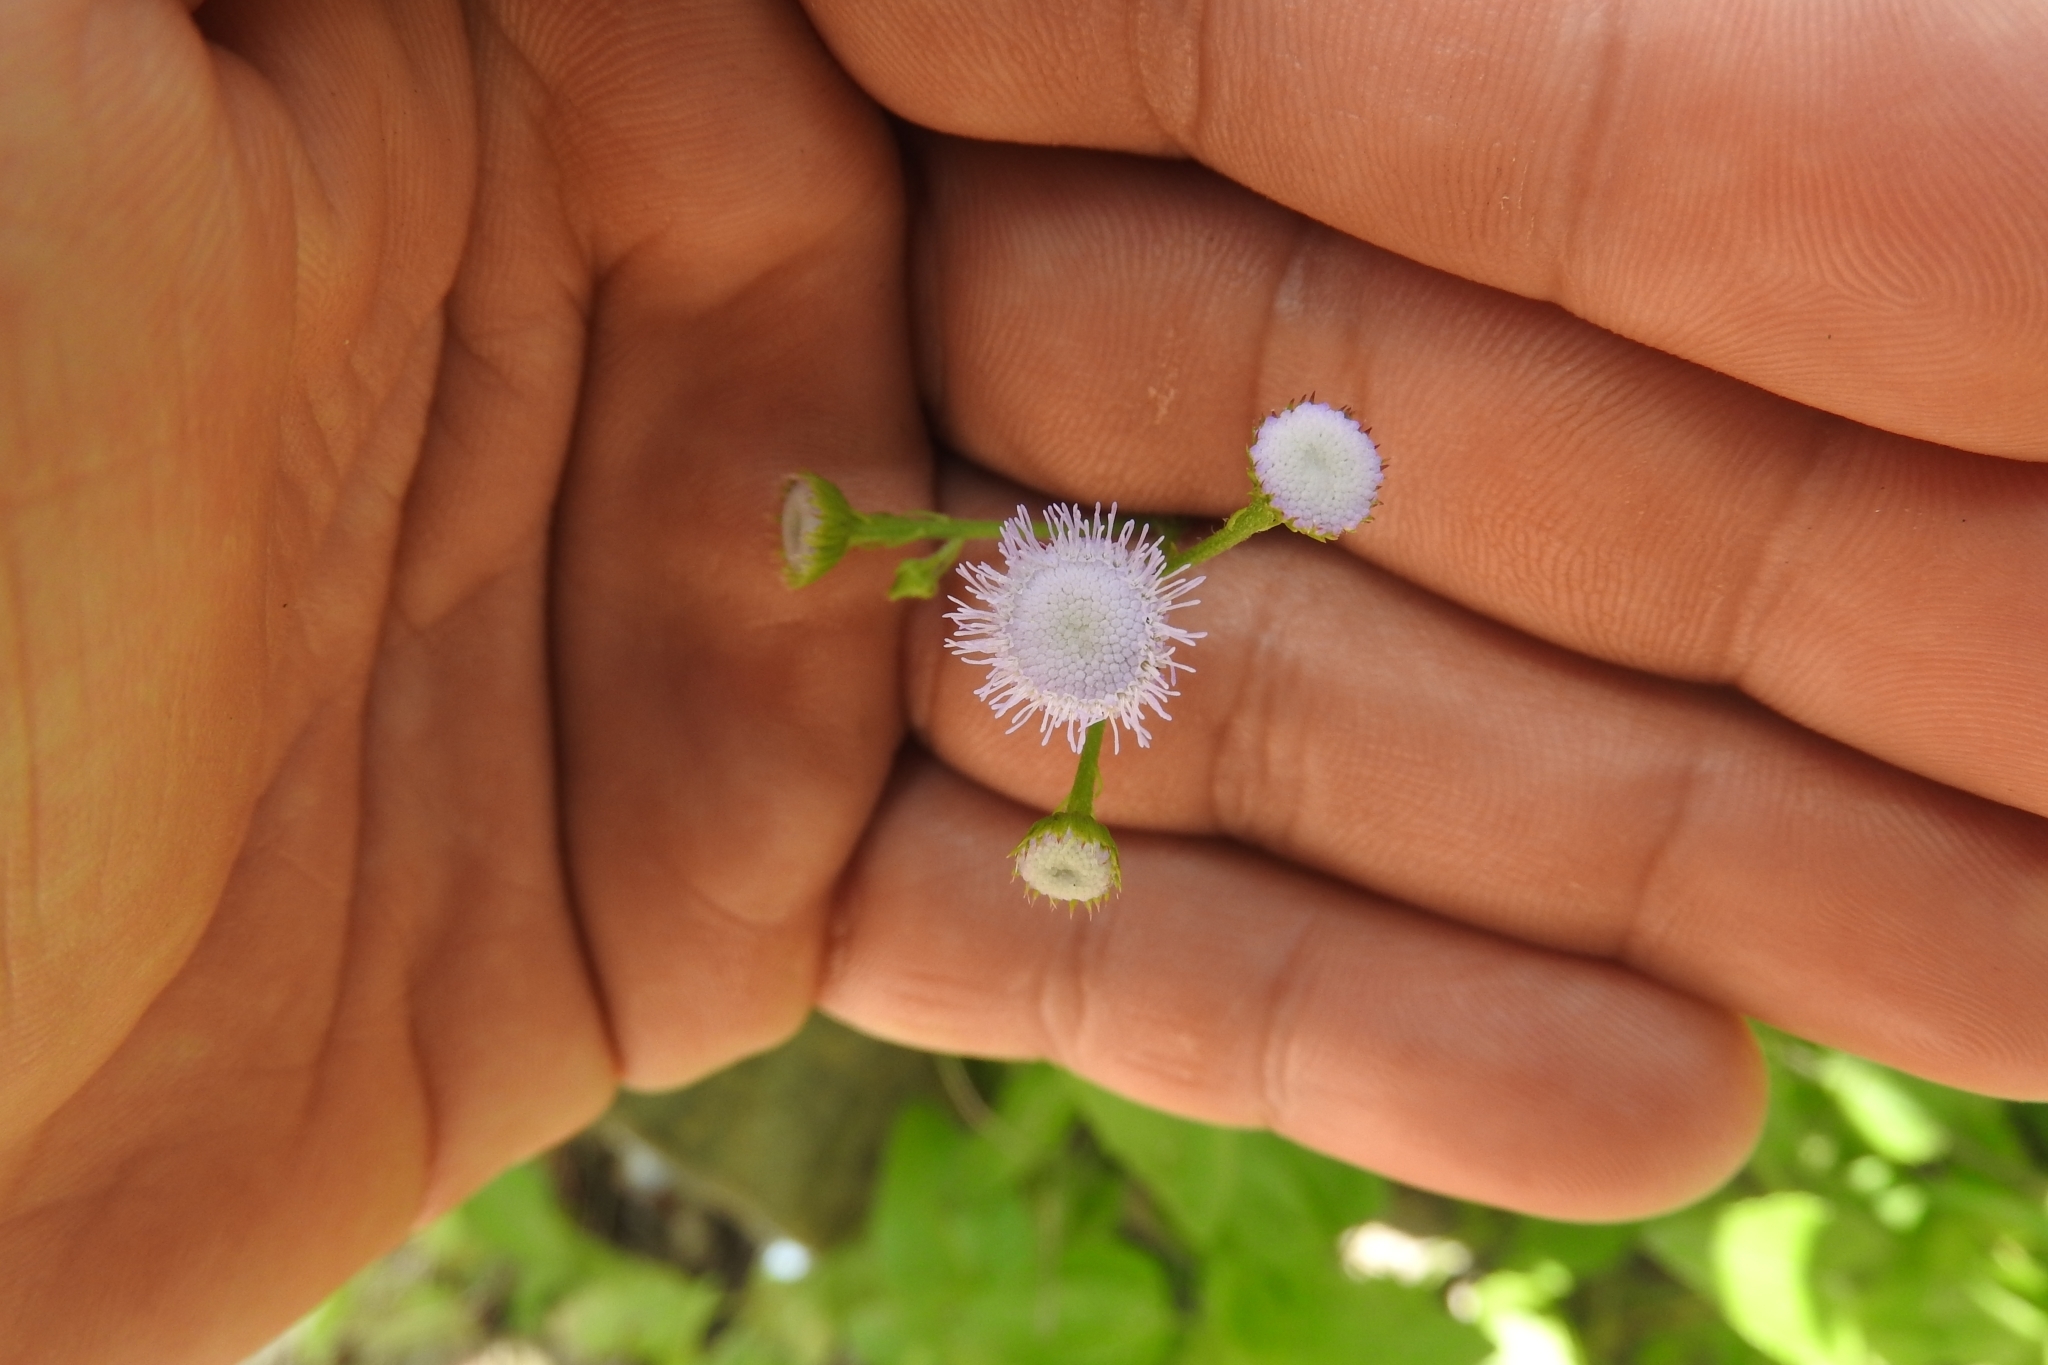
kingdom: Plantae
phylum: Tracheophyta
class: Magnoliopsida
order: Asterales
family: Asteraceae
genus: Ageratum
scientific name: Ageratum gaumeri
